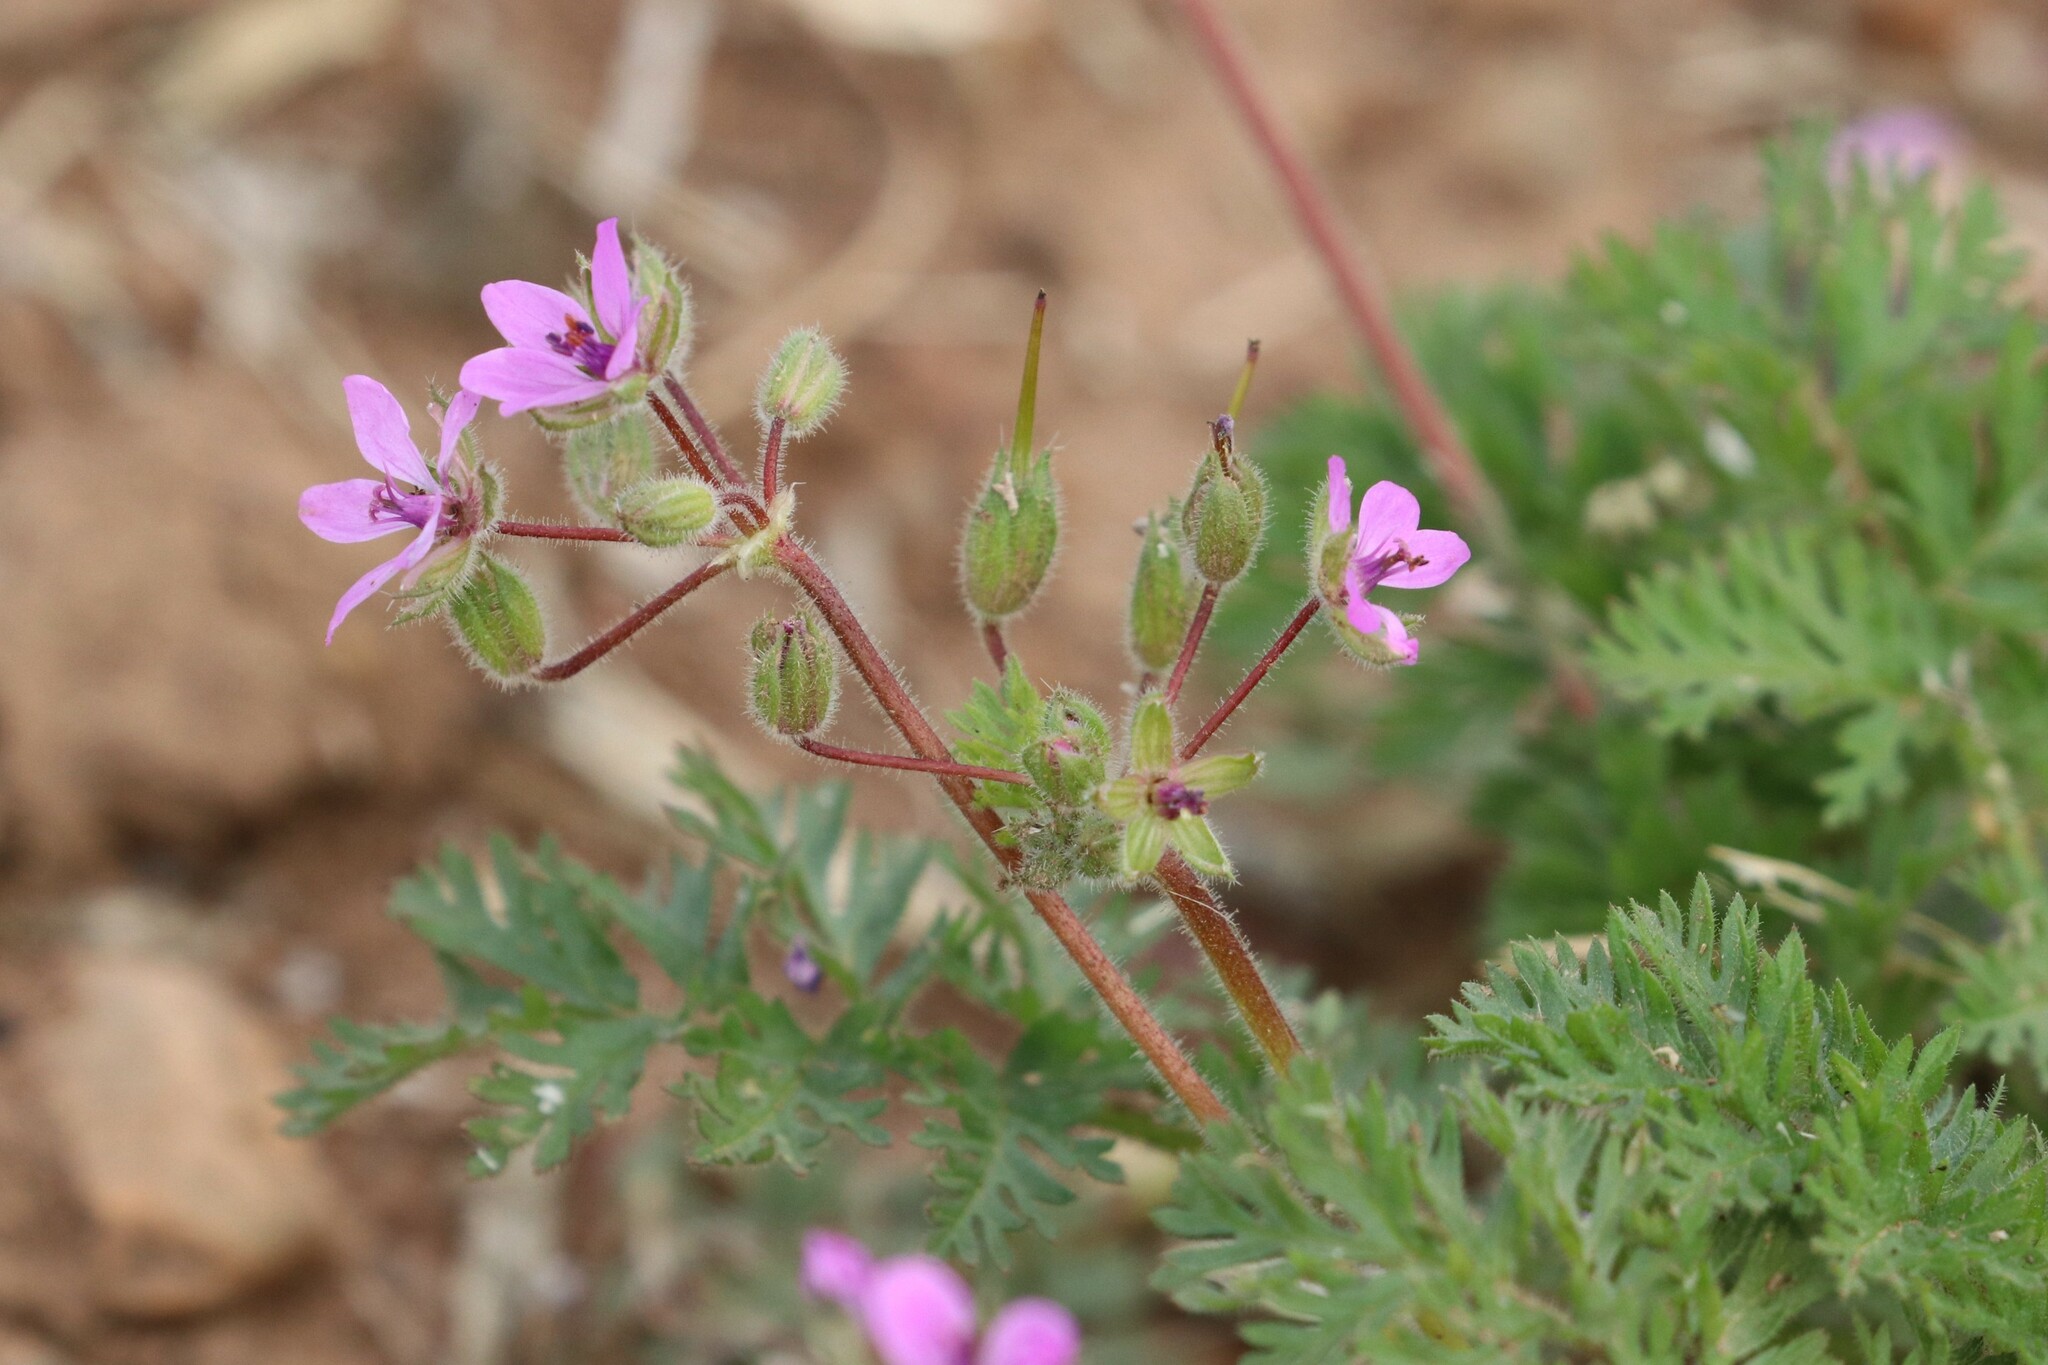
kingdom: Plantae
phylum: Tracheophyta
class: Magnoliopsida
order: Geraniales
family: Geraniaceae
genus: Erodium
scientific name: Erodium cicutarium
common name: Common stork's-bill
